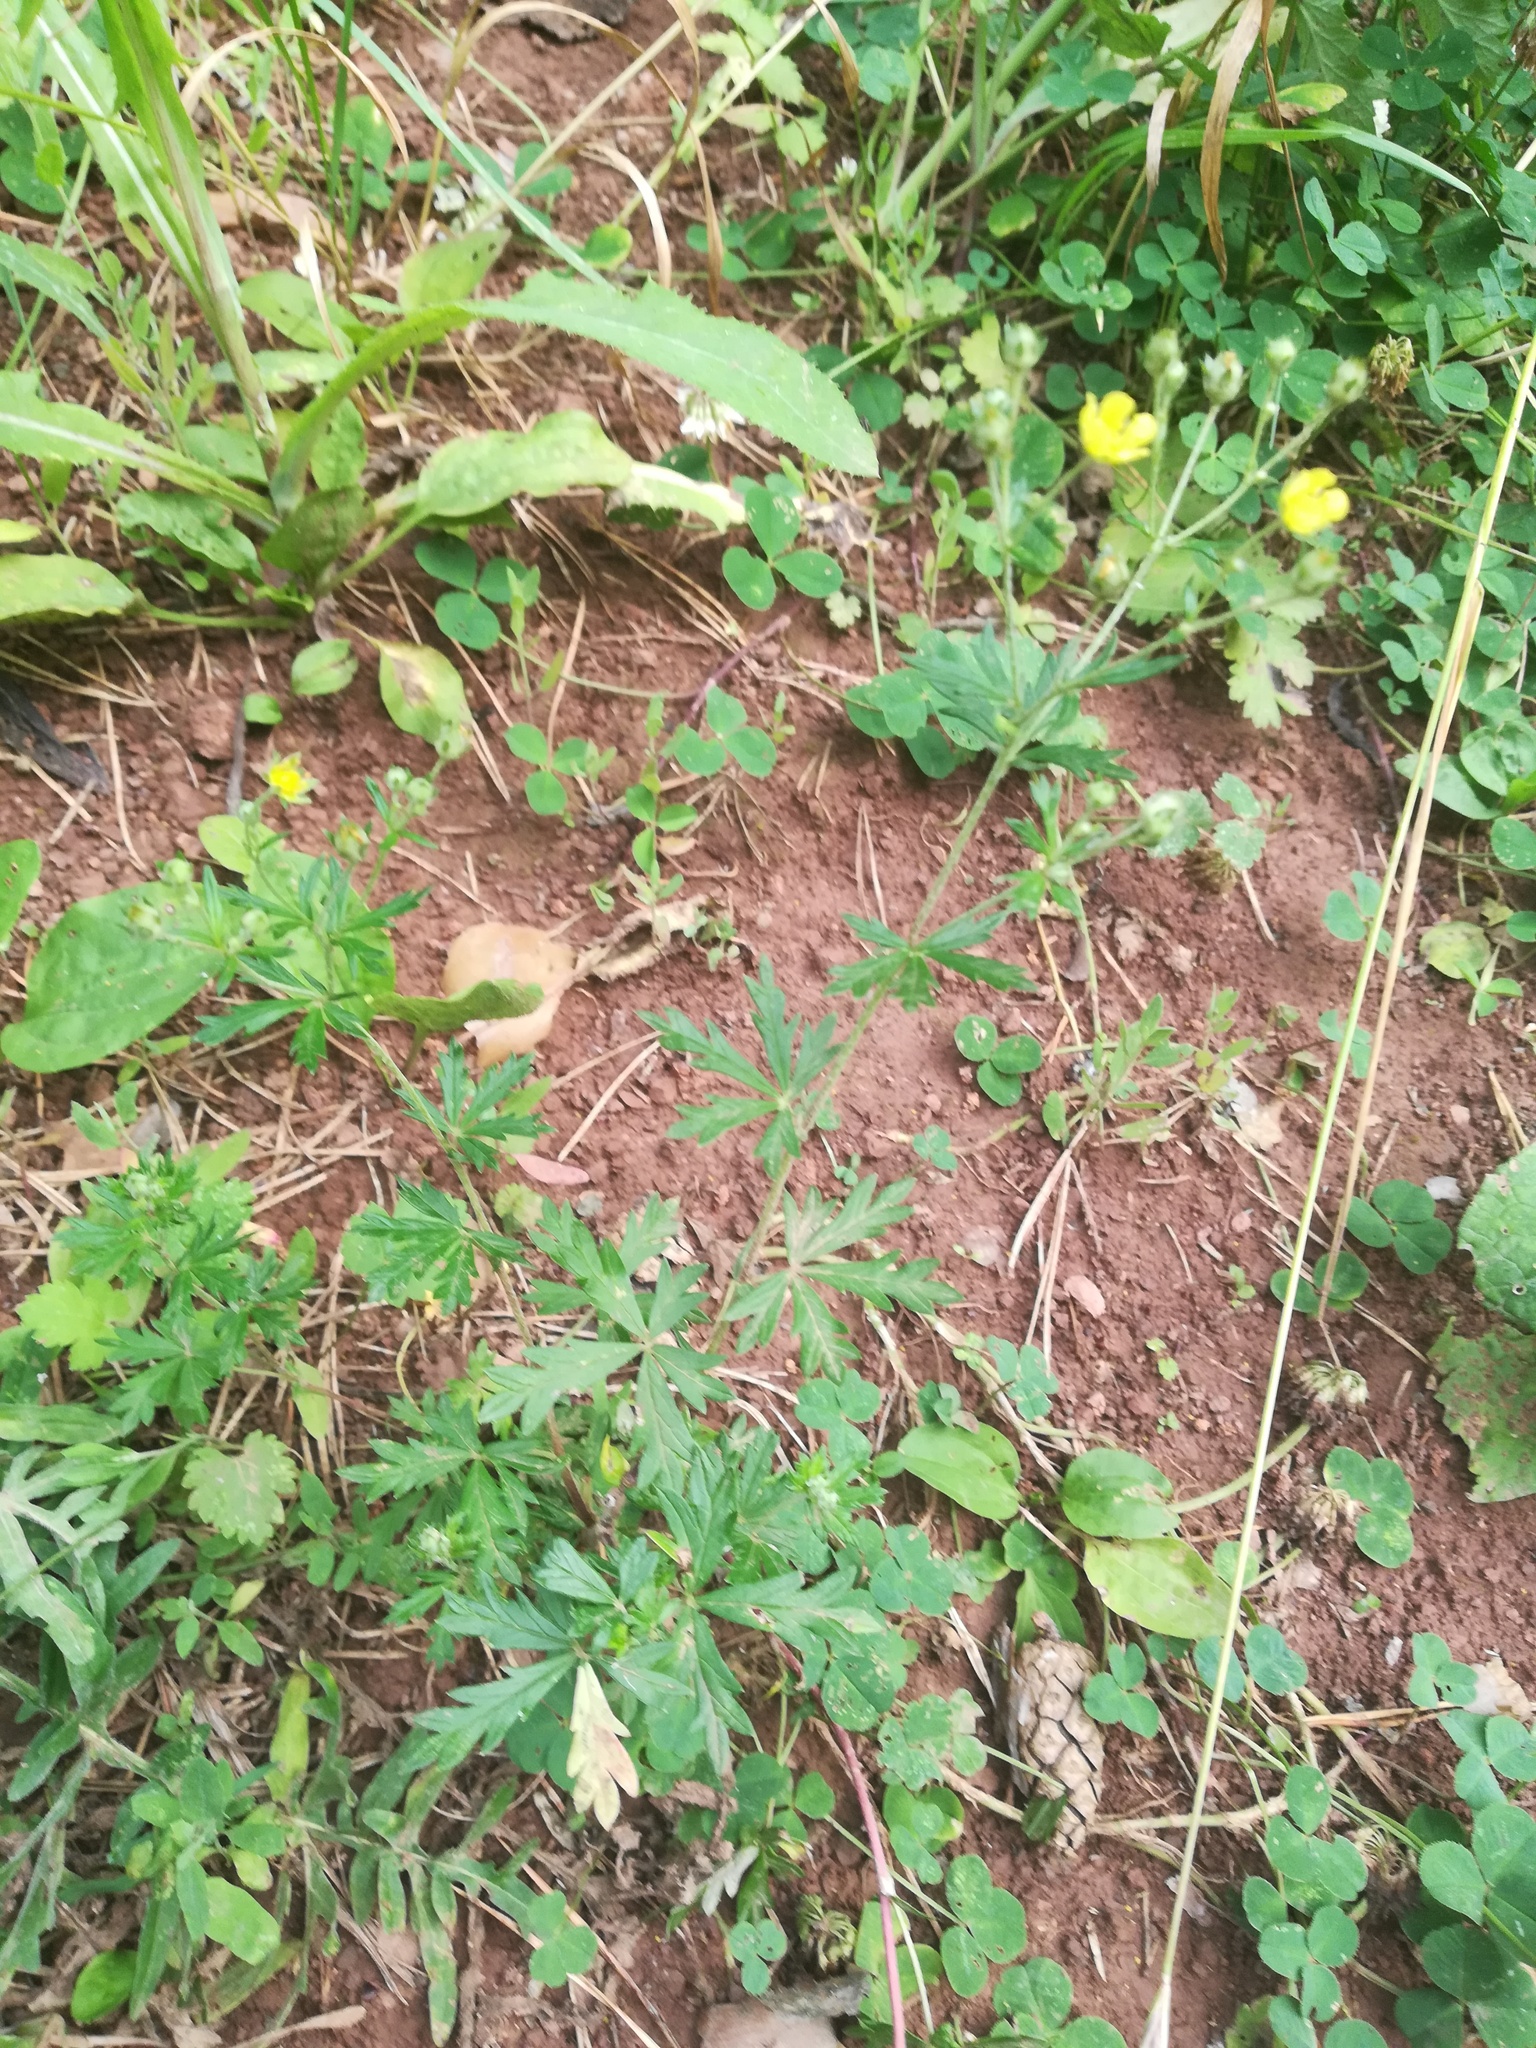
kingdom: Plantae
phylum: Tracheophyta
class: Magnoliopsida
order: Rosales
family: Rosaceae
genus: Potentilla
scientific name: Potentilla argentea
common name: Hoary cinquefoil
